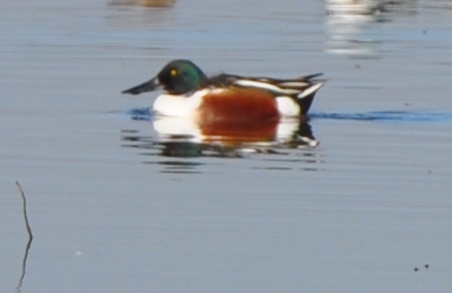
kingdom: Animalia
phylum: Chordata
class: Aves
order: Anseriformes
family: Anatidae
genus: Spatula
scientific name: Spatula clypeata
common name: Northern shoveler
